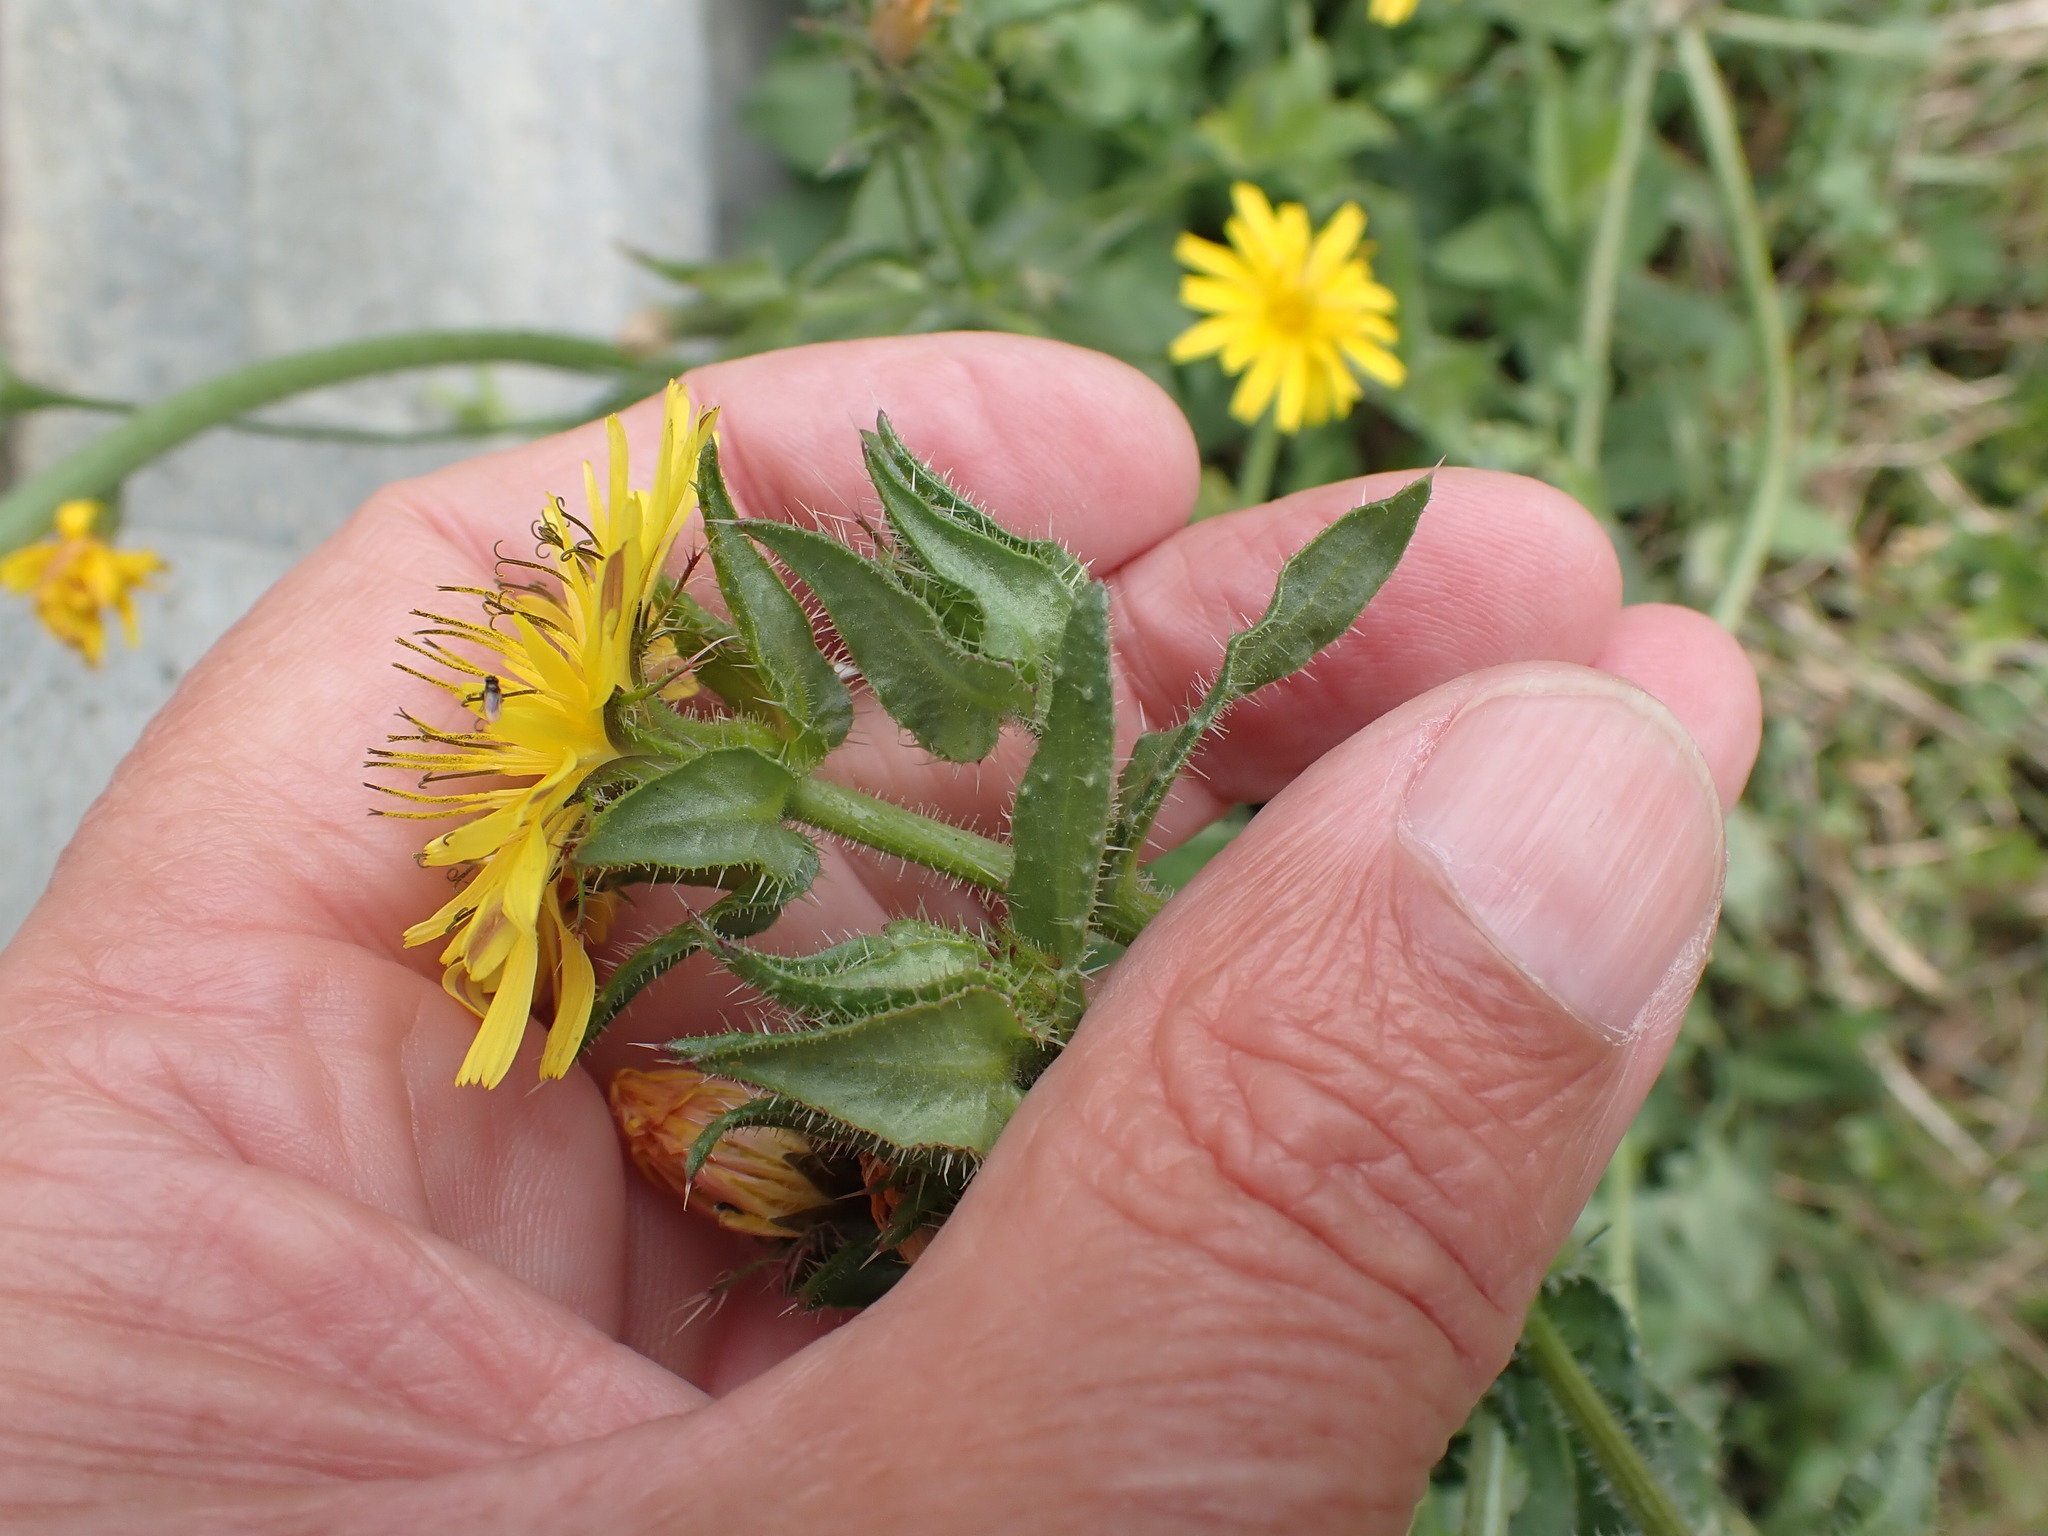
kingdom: Plantae
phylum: Tracheophyta
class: Magnoliopsida
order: Asterales
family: Asteraceae
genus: Helminthotheca
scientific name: Helminthotheca echioides
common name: Ox-tongue
